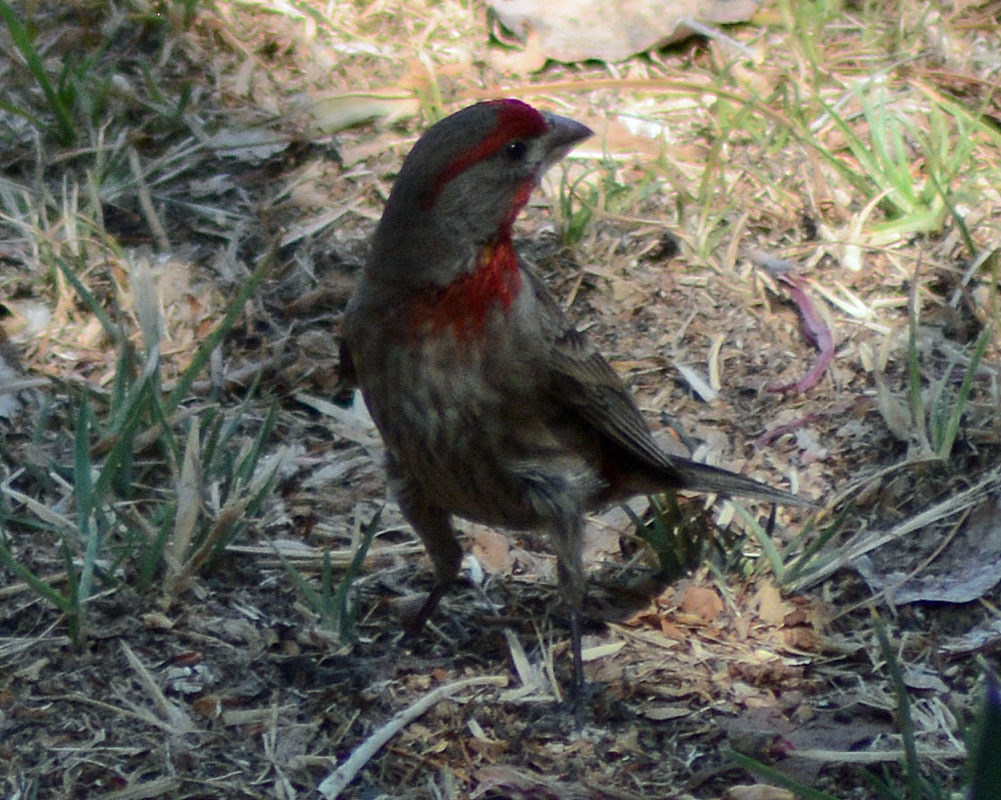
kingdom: Animalia
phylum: Chordata
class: Aves
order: Passeriformes
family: Fringillidae
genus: Haemorhous
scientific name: Haemorhous mexicanus
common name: House finch
